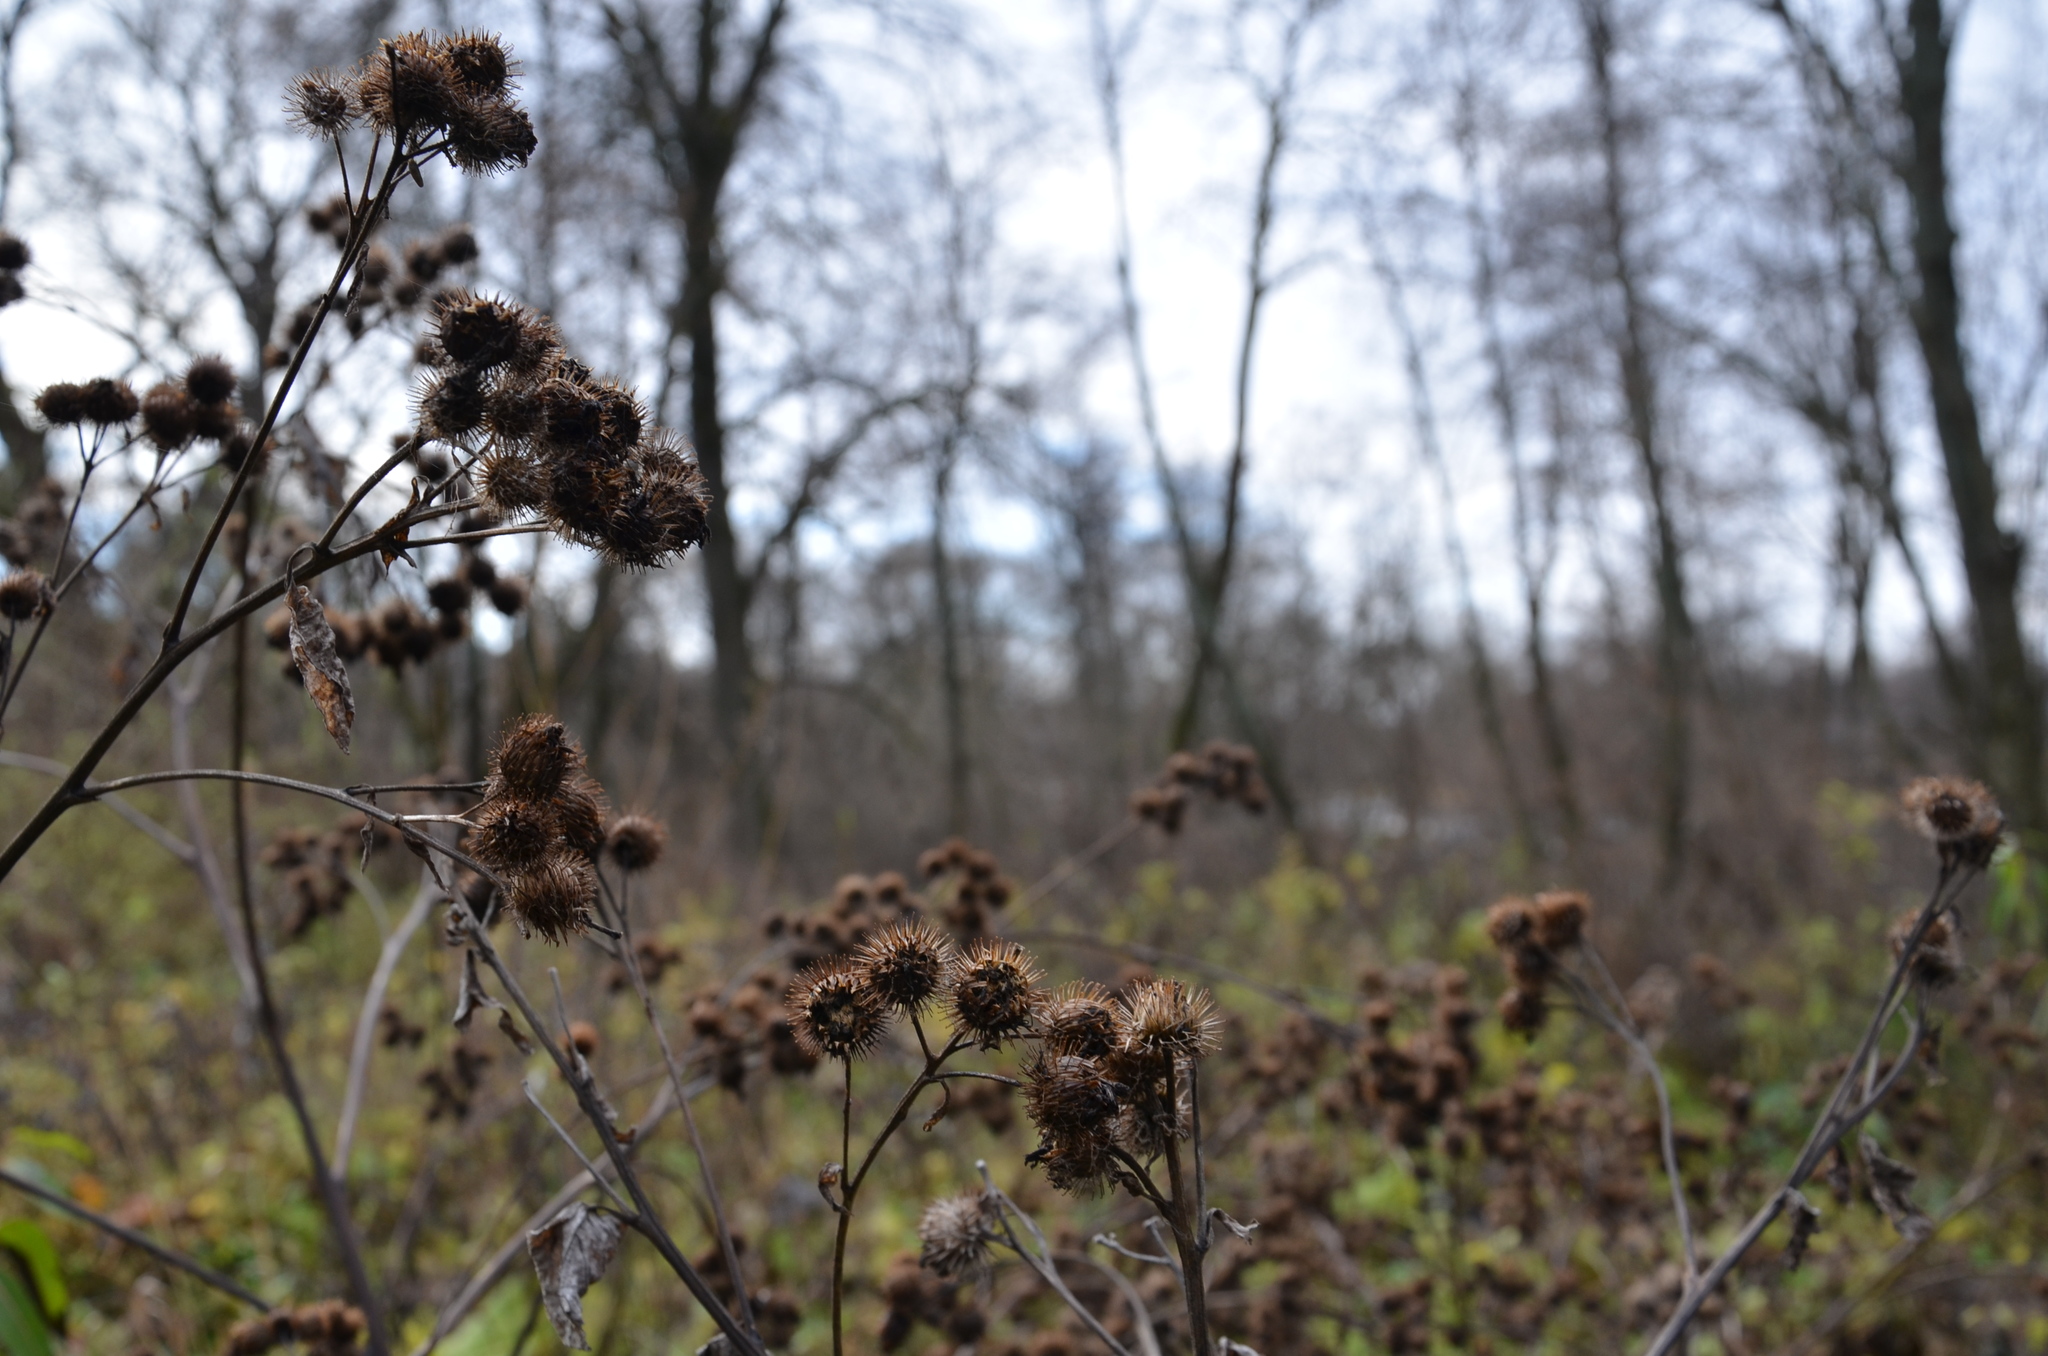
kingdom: Plantae
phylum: Tracheophyta
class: Magnoliopsida
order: Asterales
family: Asteraceae
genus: Arctium
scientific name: Arctium tomentosum
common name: Woolly burdock
